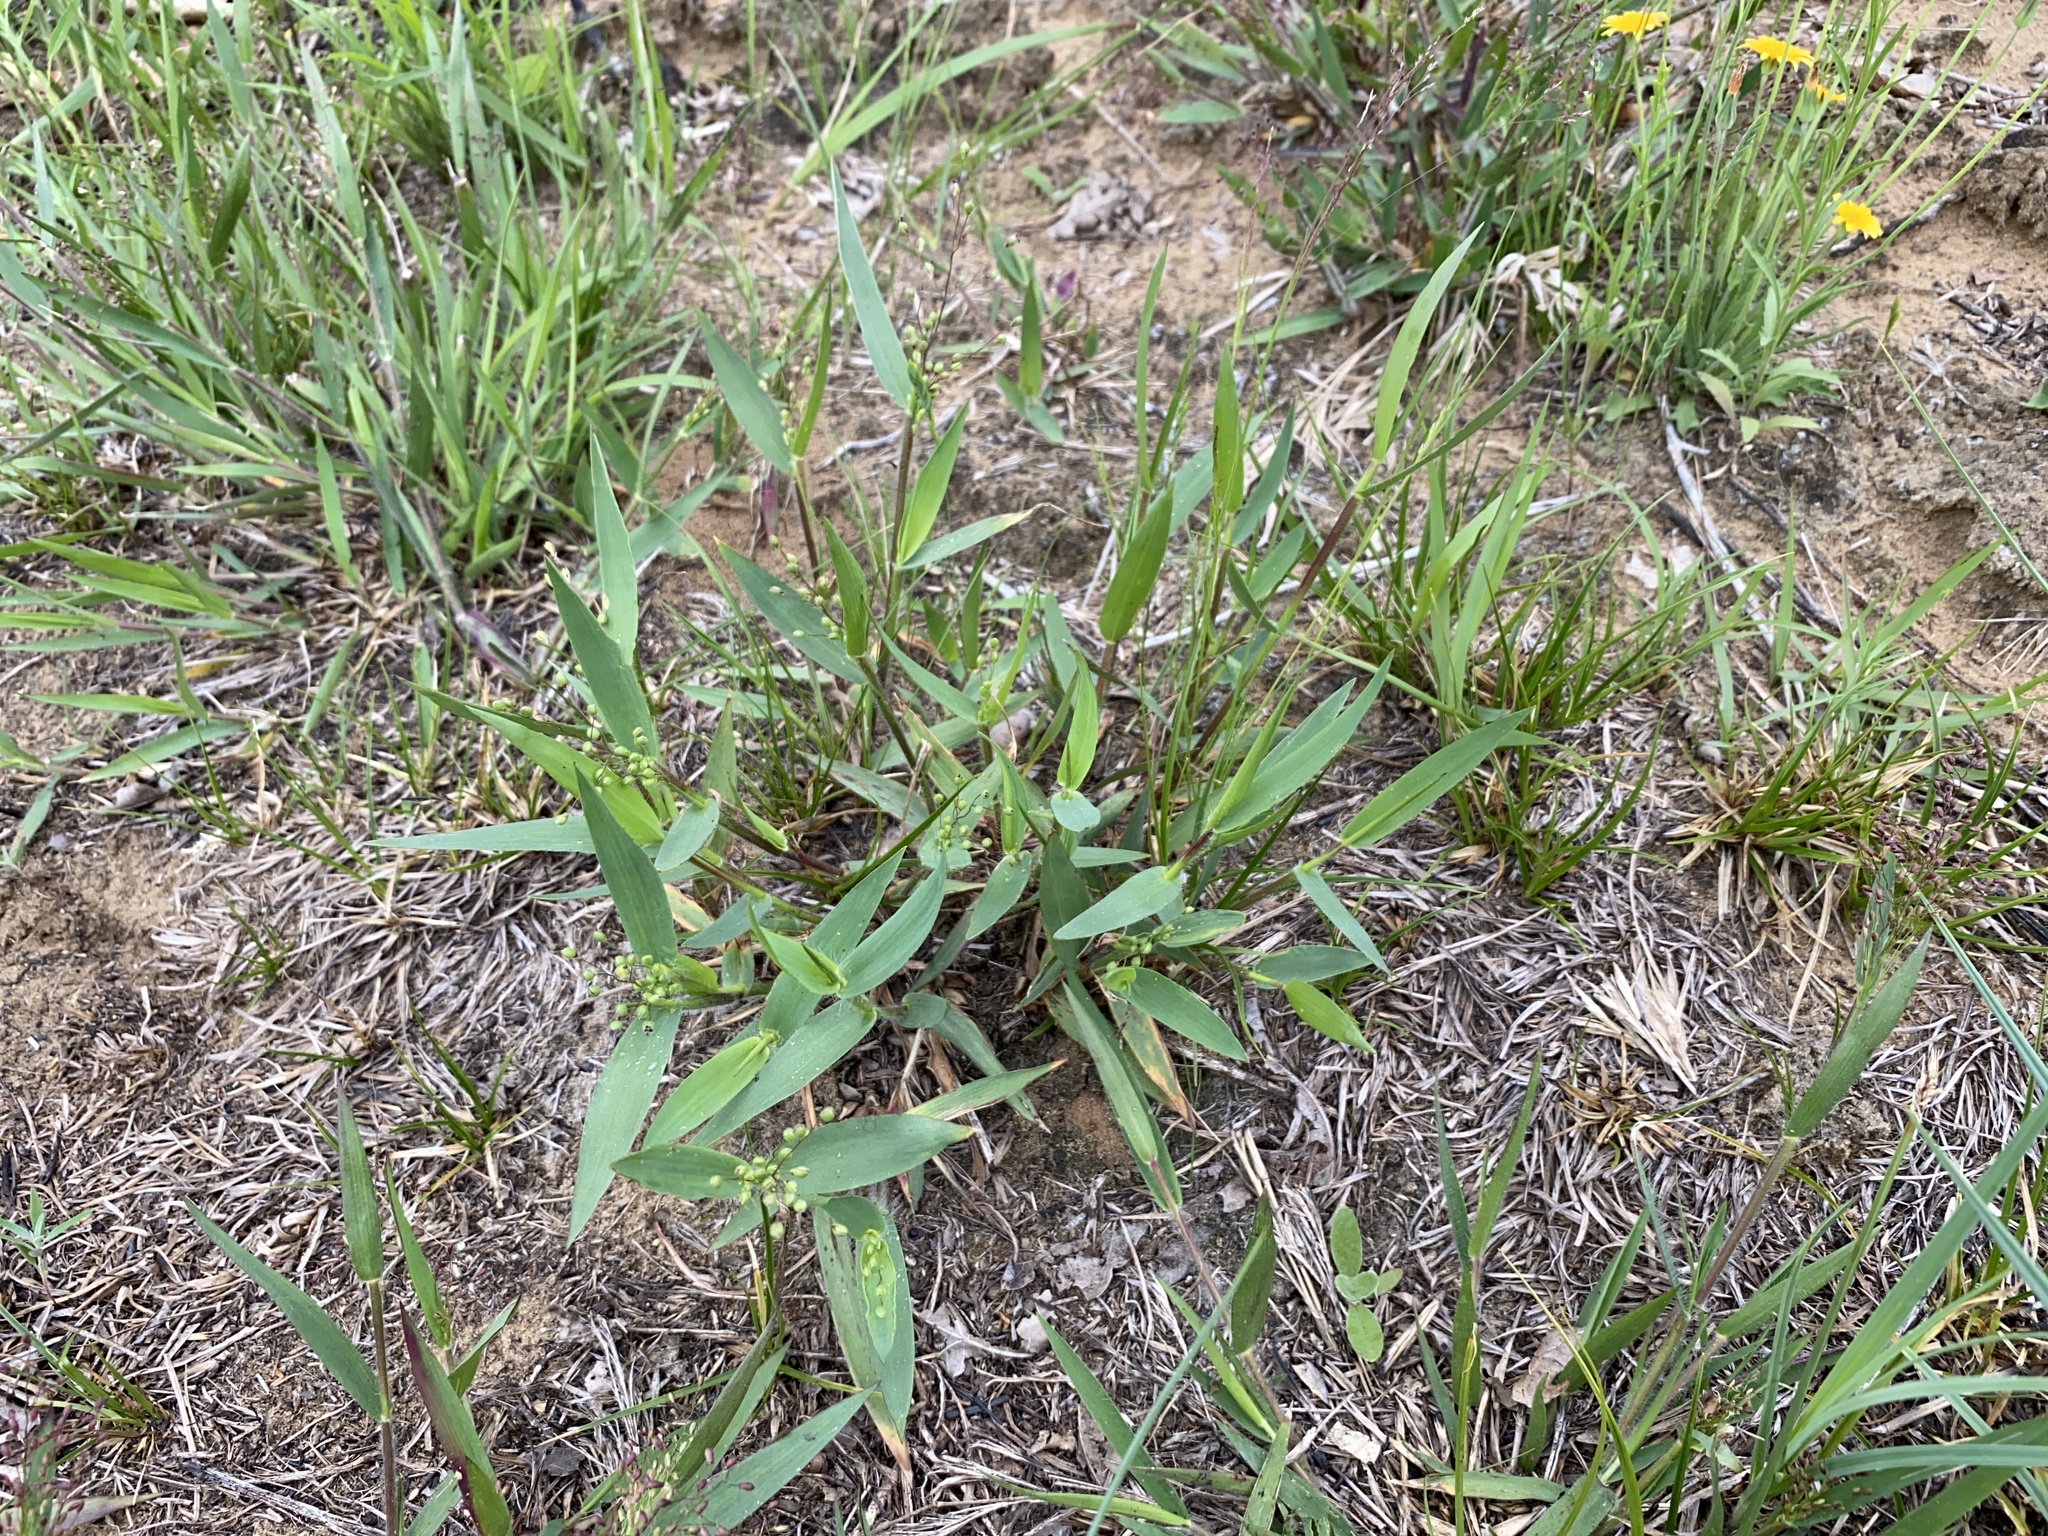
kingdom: Plantae
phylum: Tracheophyta
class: Liliopsida
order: Poales
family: Poaceae
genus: Dichanthelium
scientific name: Dichanthelium scribnerianum
